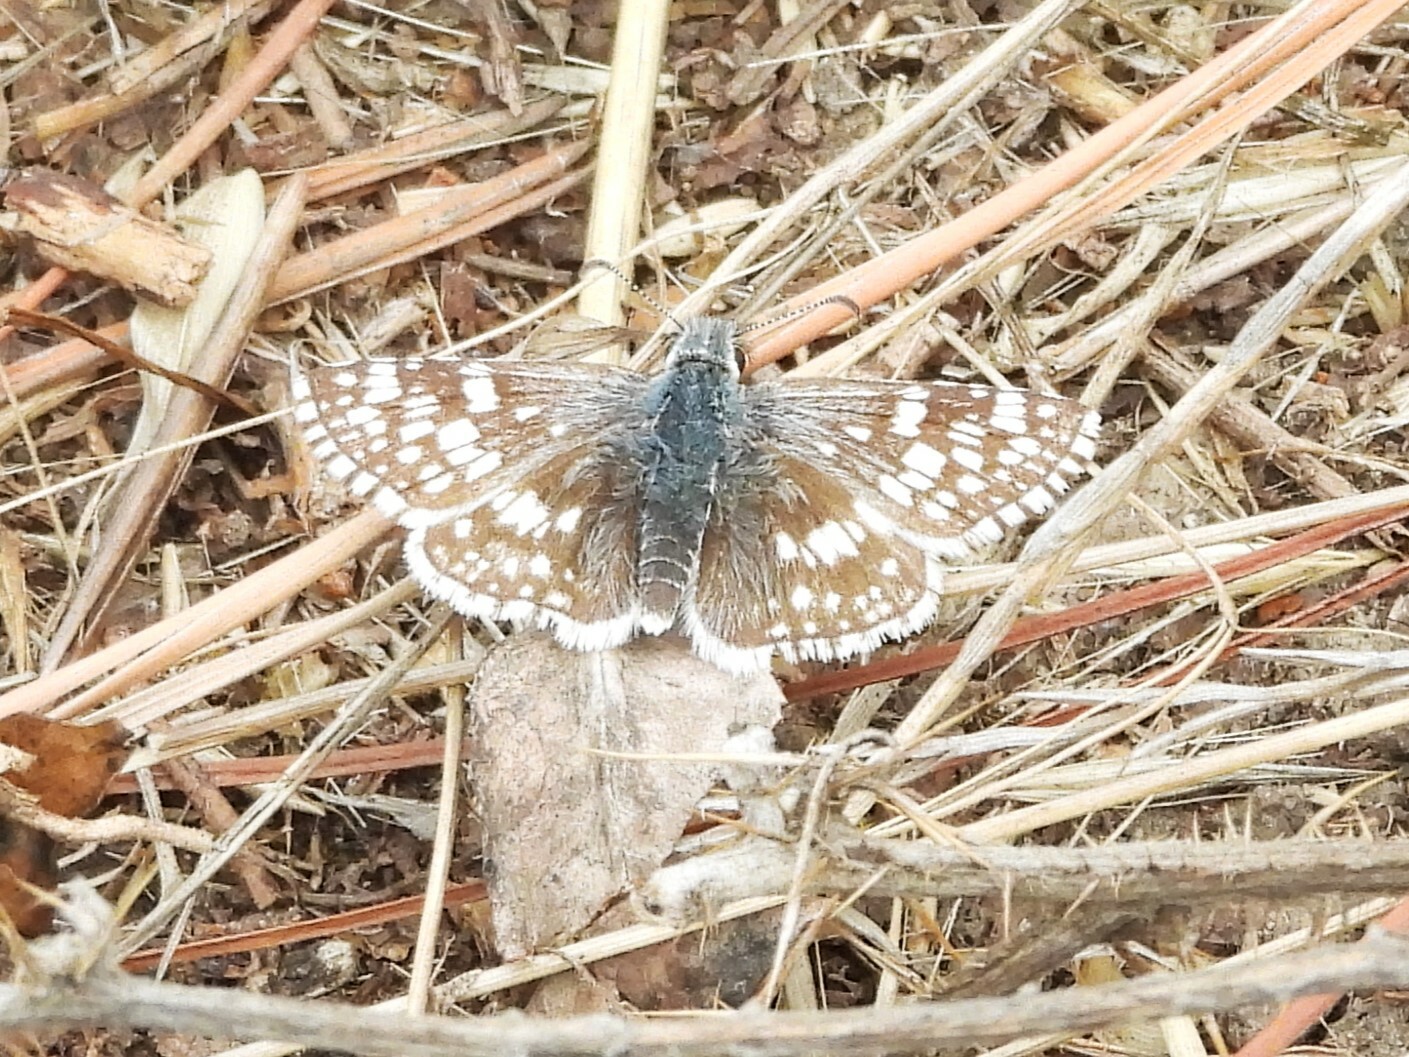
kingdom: Animalia
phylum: Arthropoda
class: Insecta
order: Lepidoptera
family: Hesperiidae
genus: Burnsius
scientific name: Burnsius communis
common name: Common checkered-skipper
